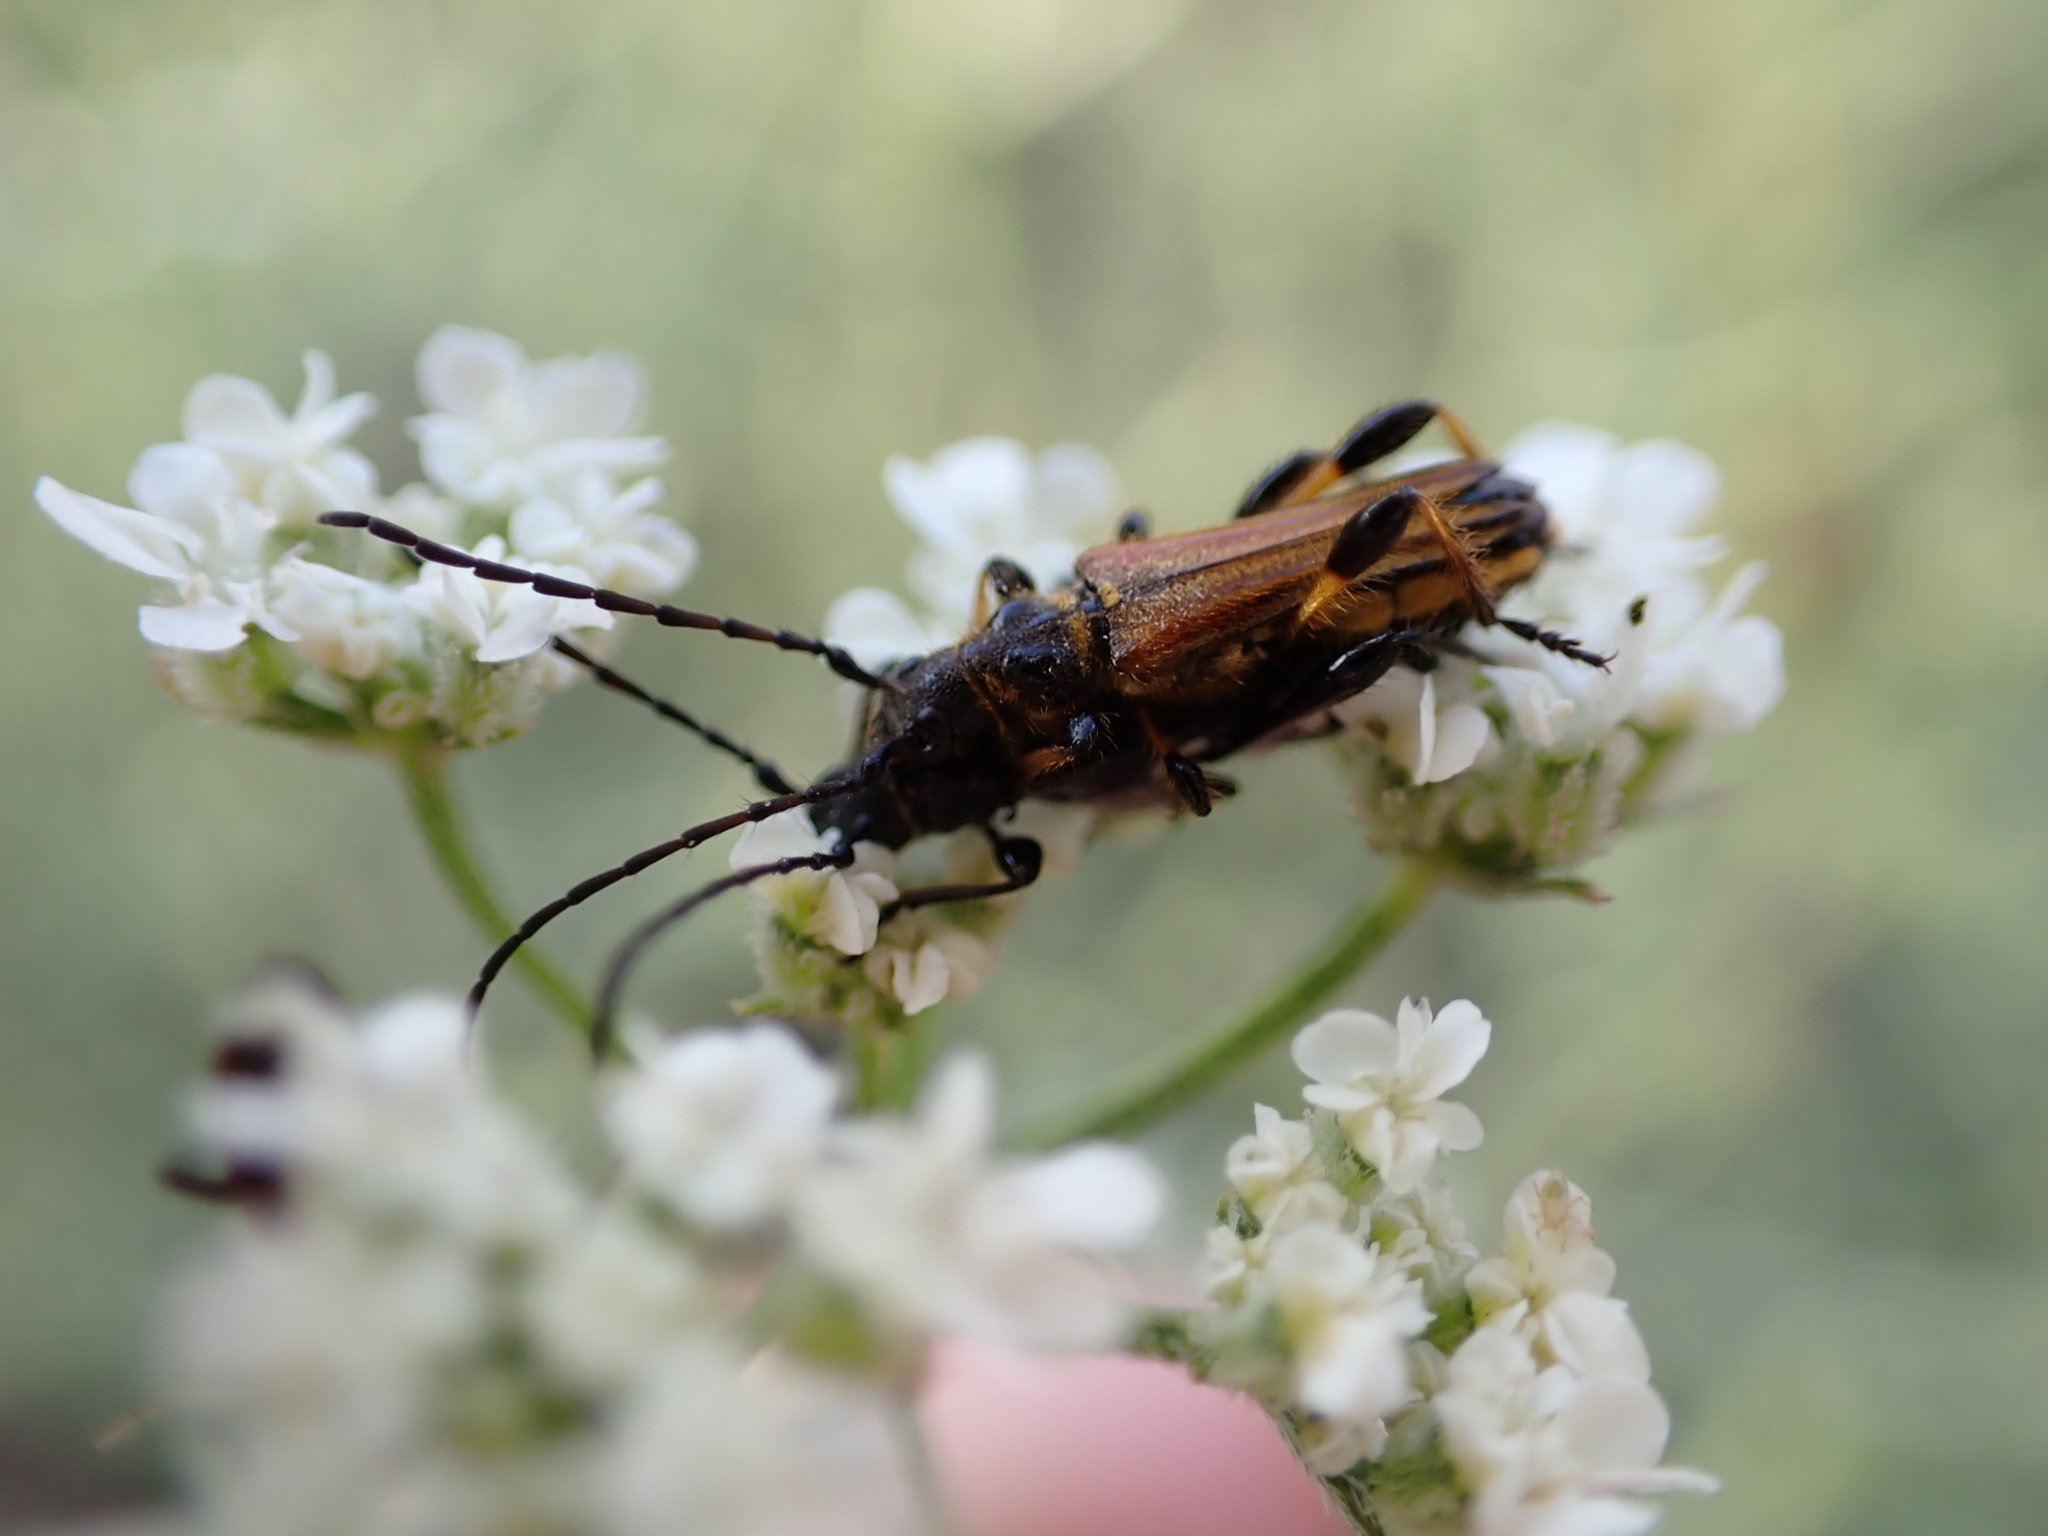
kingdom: Animalia
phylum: Arthropoda
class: Insecta
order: Coleoptera
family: Cerambycidae
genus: Stenopterus
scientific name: Stenopterus ater
